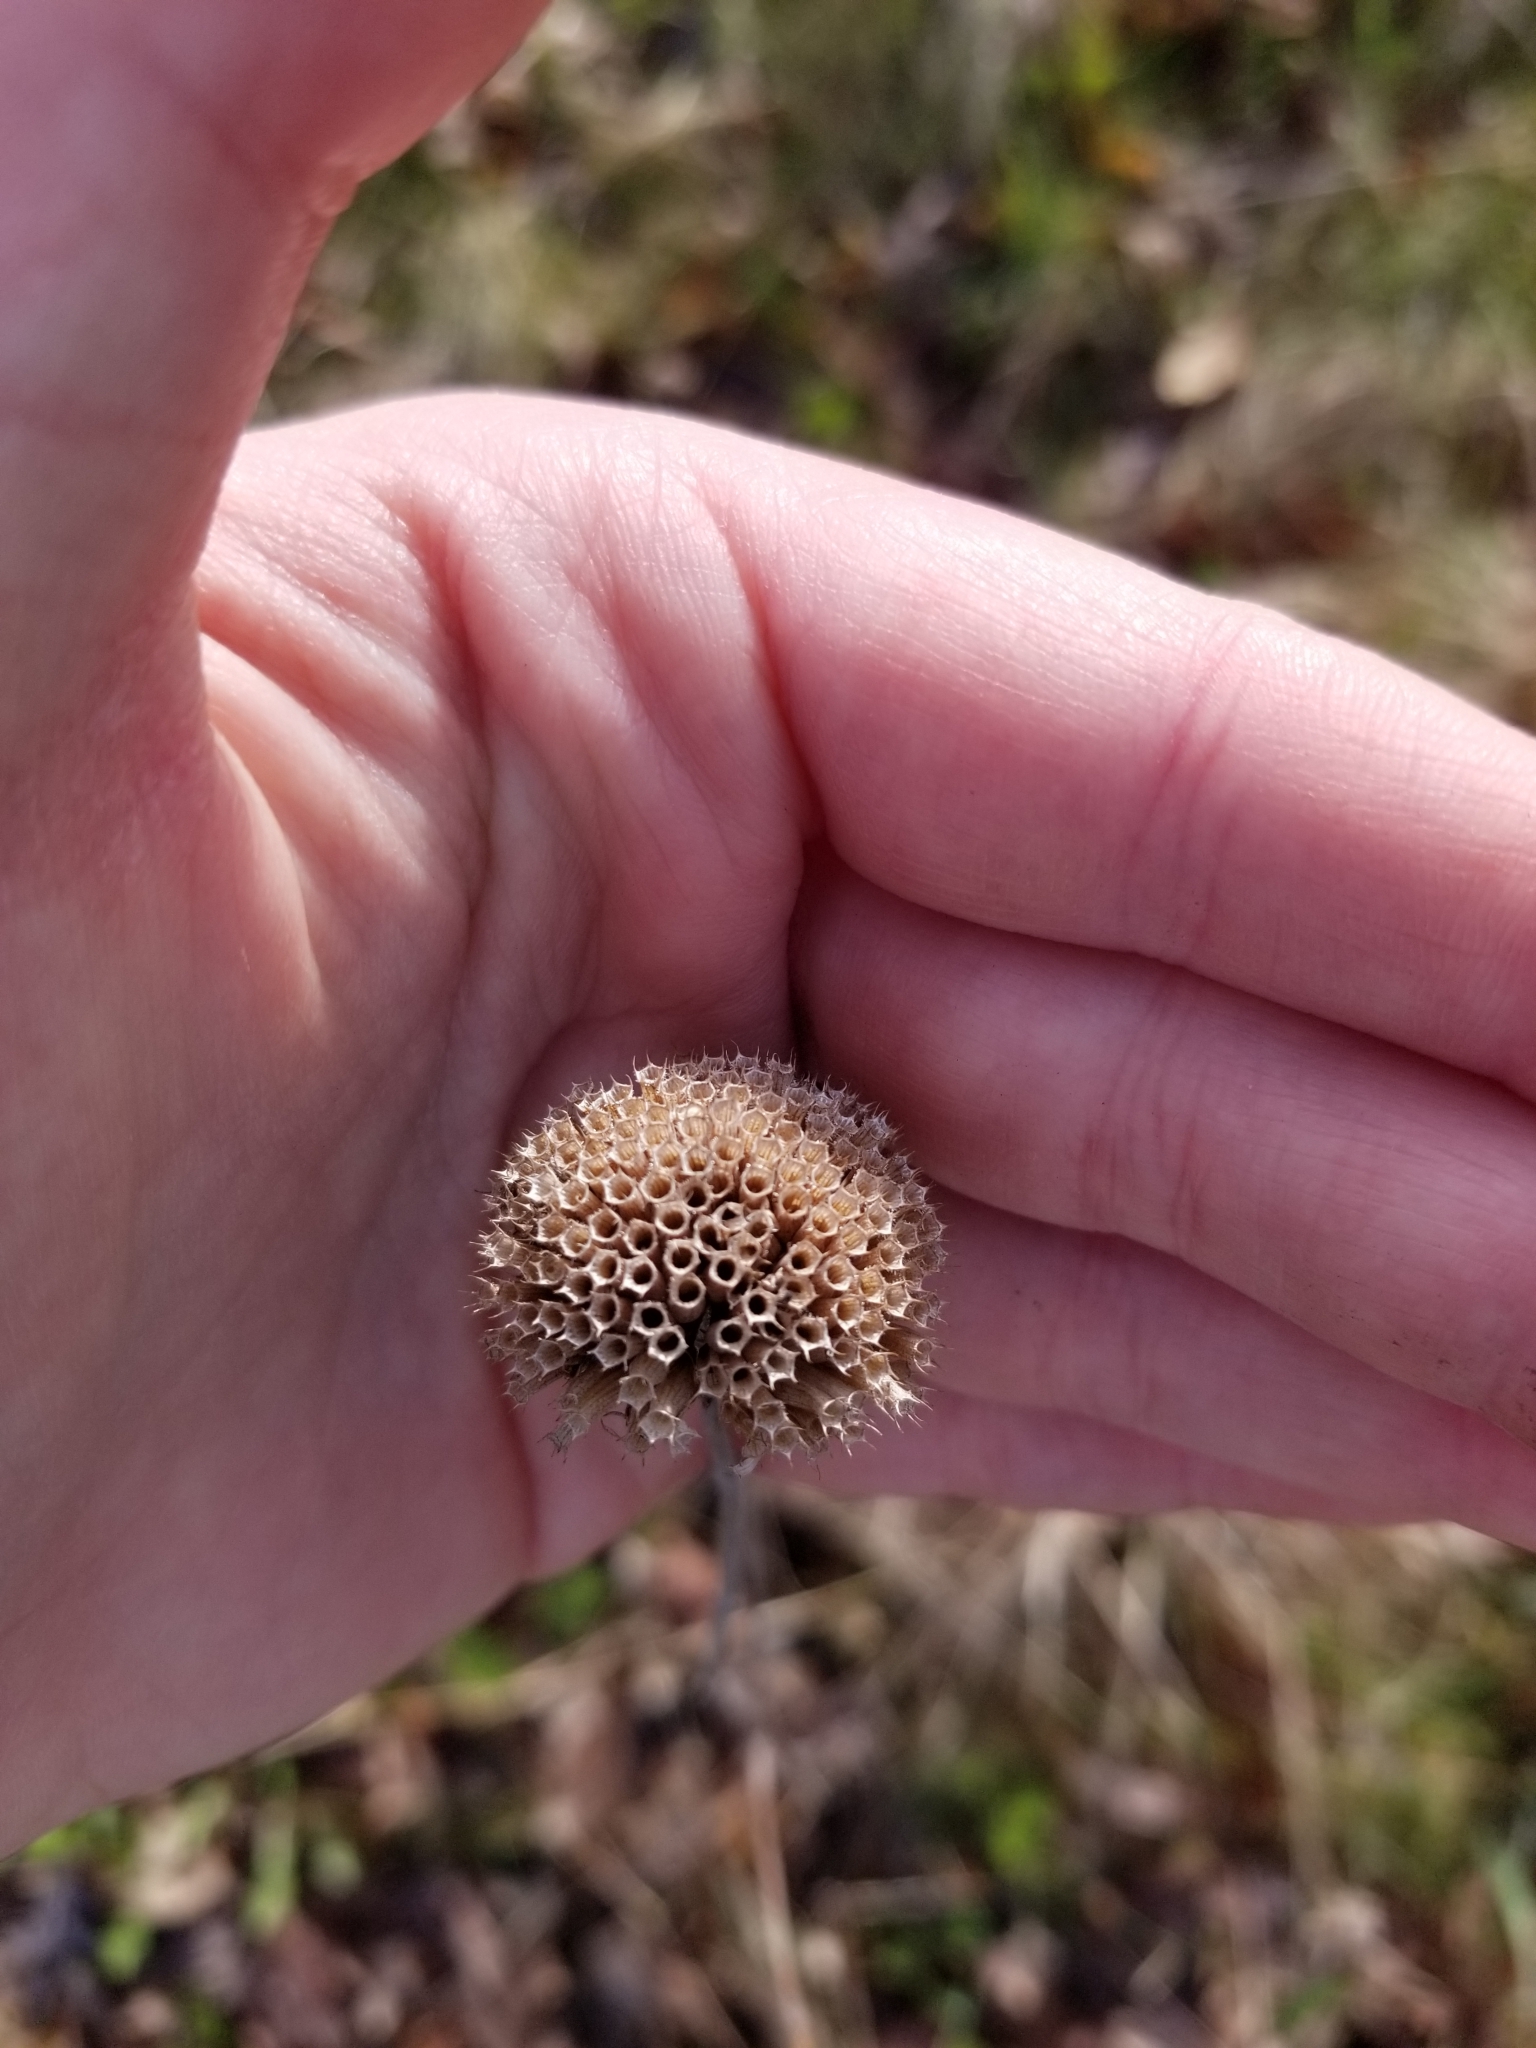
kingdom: Plantae
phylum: Tracheophyta
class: Magnoliopsida
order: Lamiales
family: Lamiaceae
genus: Monarda
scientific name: Monarda fistulosa
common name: Purple beebalm
